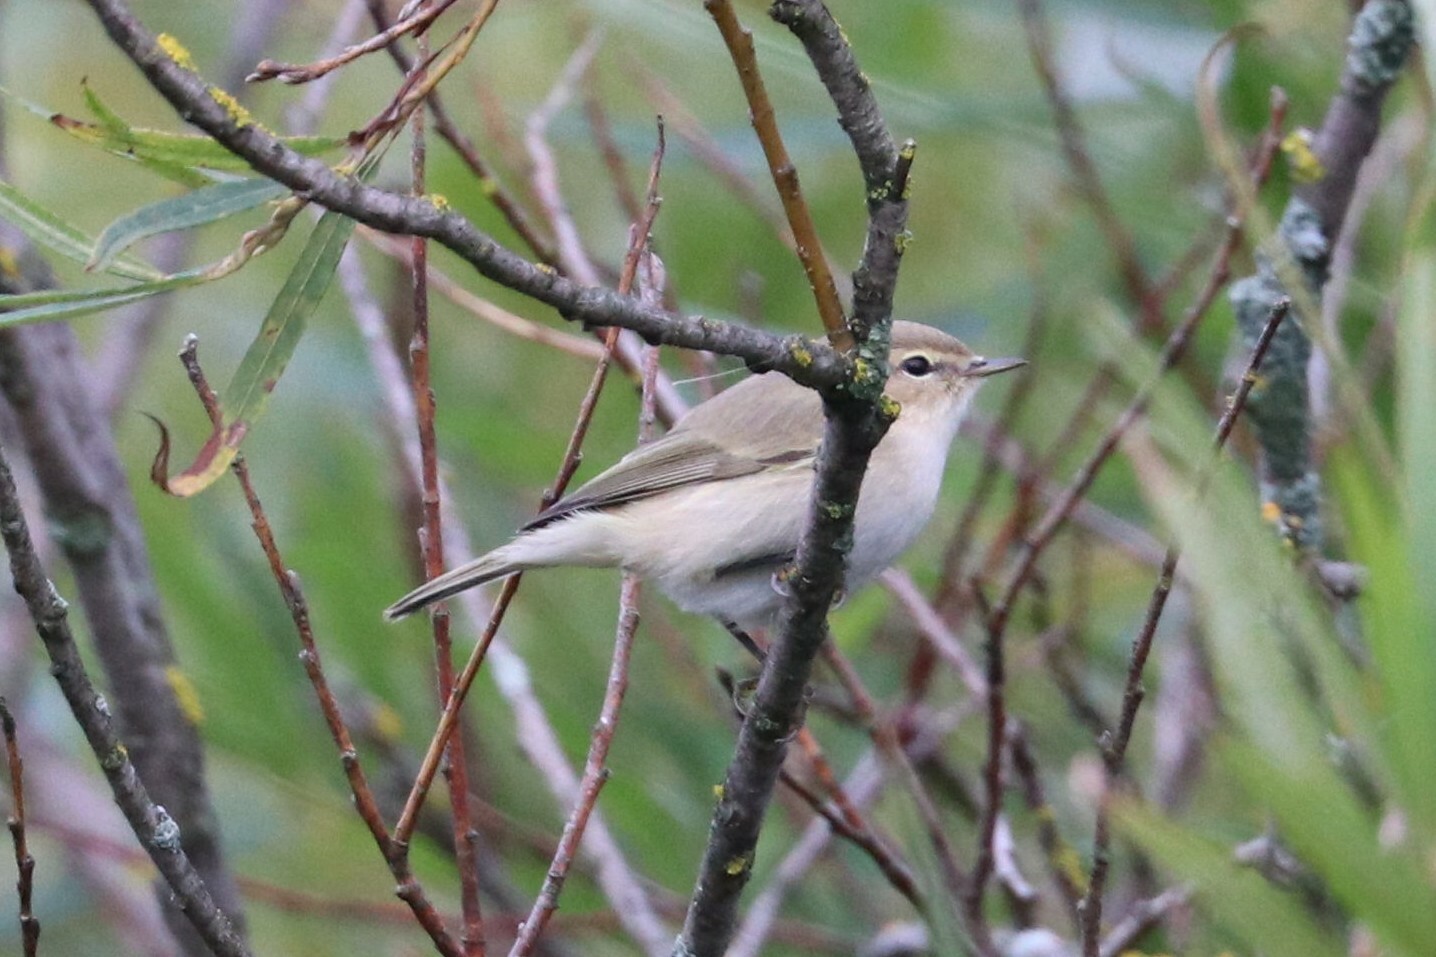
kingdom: Animalia
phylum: Chordata
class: Aves
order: Passeriformes
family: Phylloscopidae
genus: Phylloscopus
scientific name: Phylloscopus collybita
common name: Common chiffchaff
